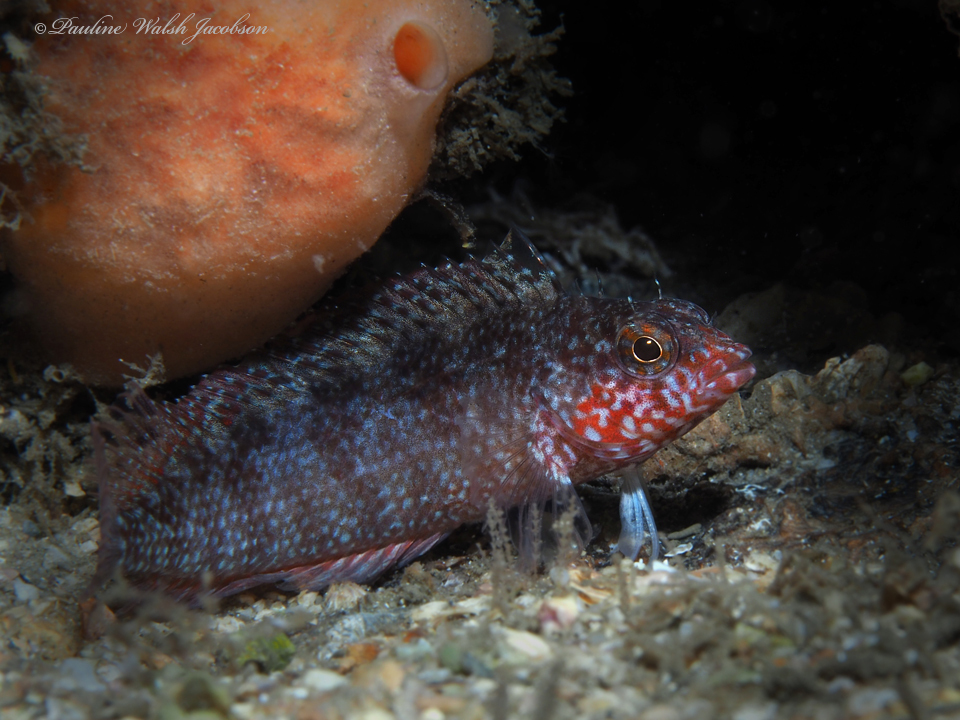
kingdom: Animalia
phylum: Chordata
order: Perciformes
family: Labrisomidae
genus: Malacoctenus
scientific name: Malacoctenus macropus
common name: Rosy blenny
